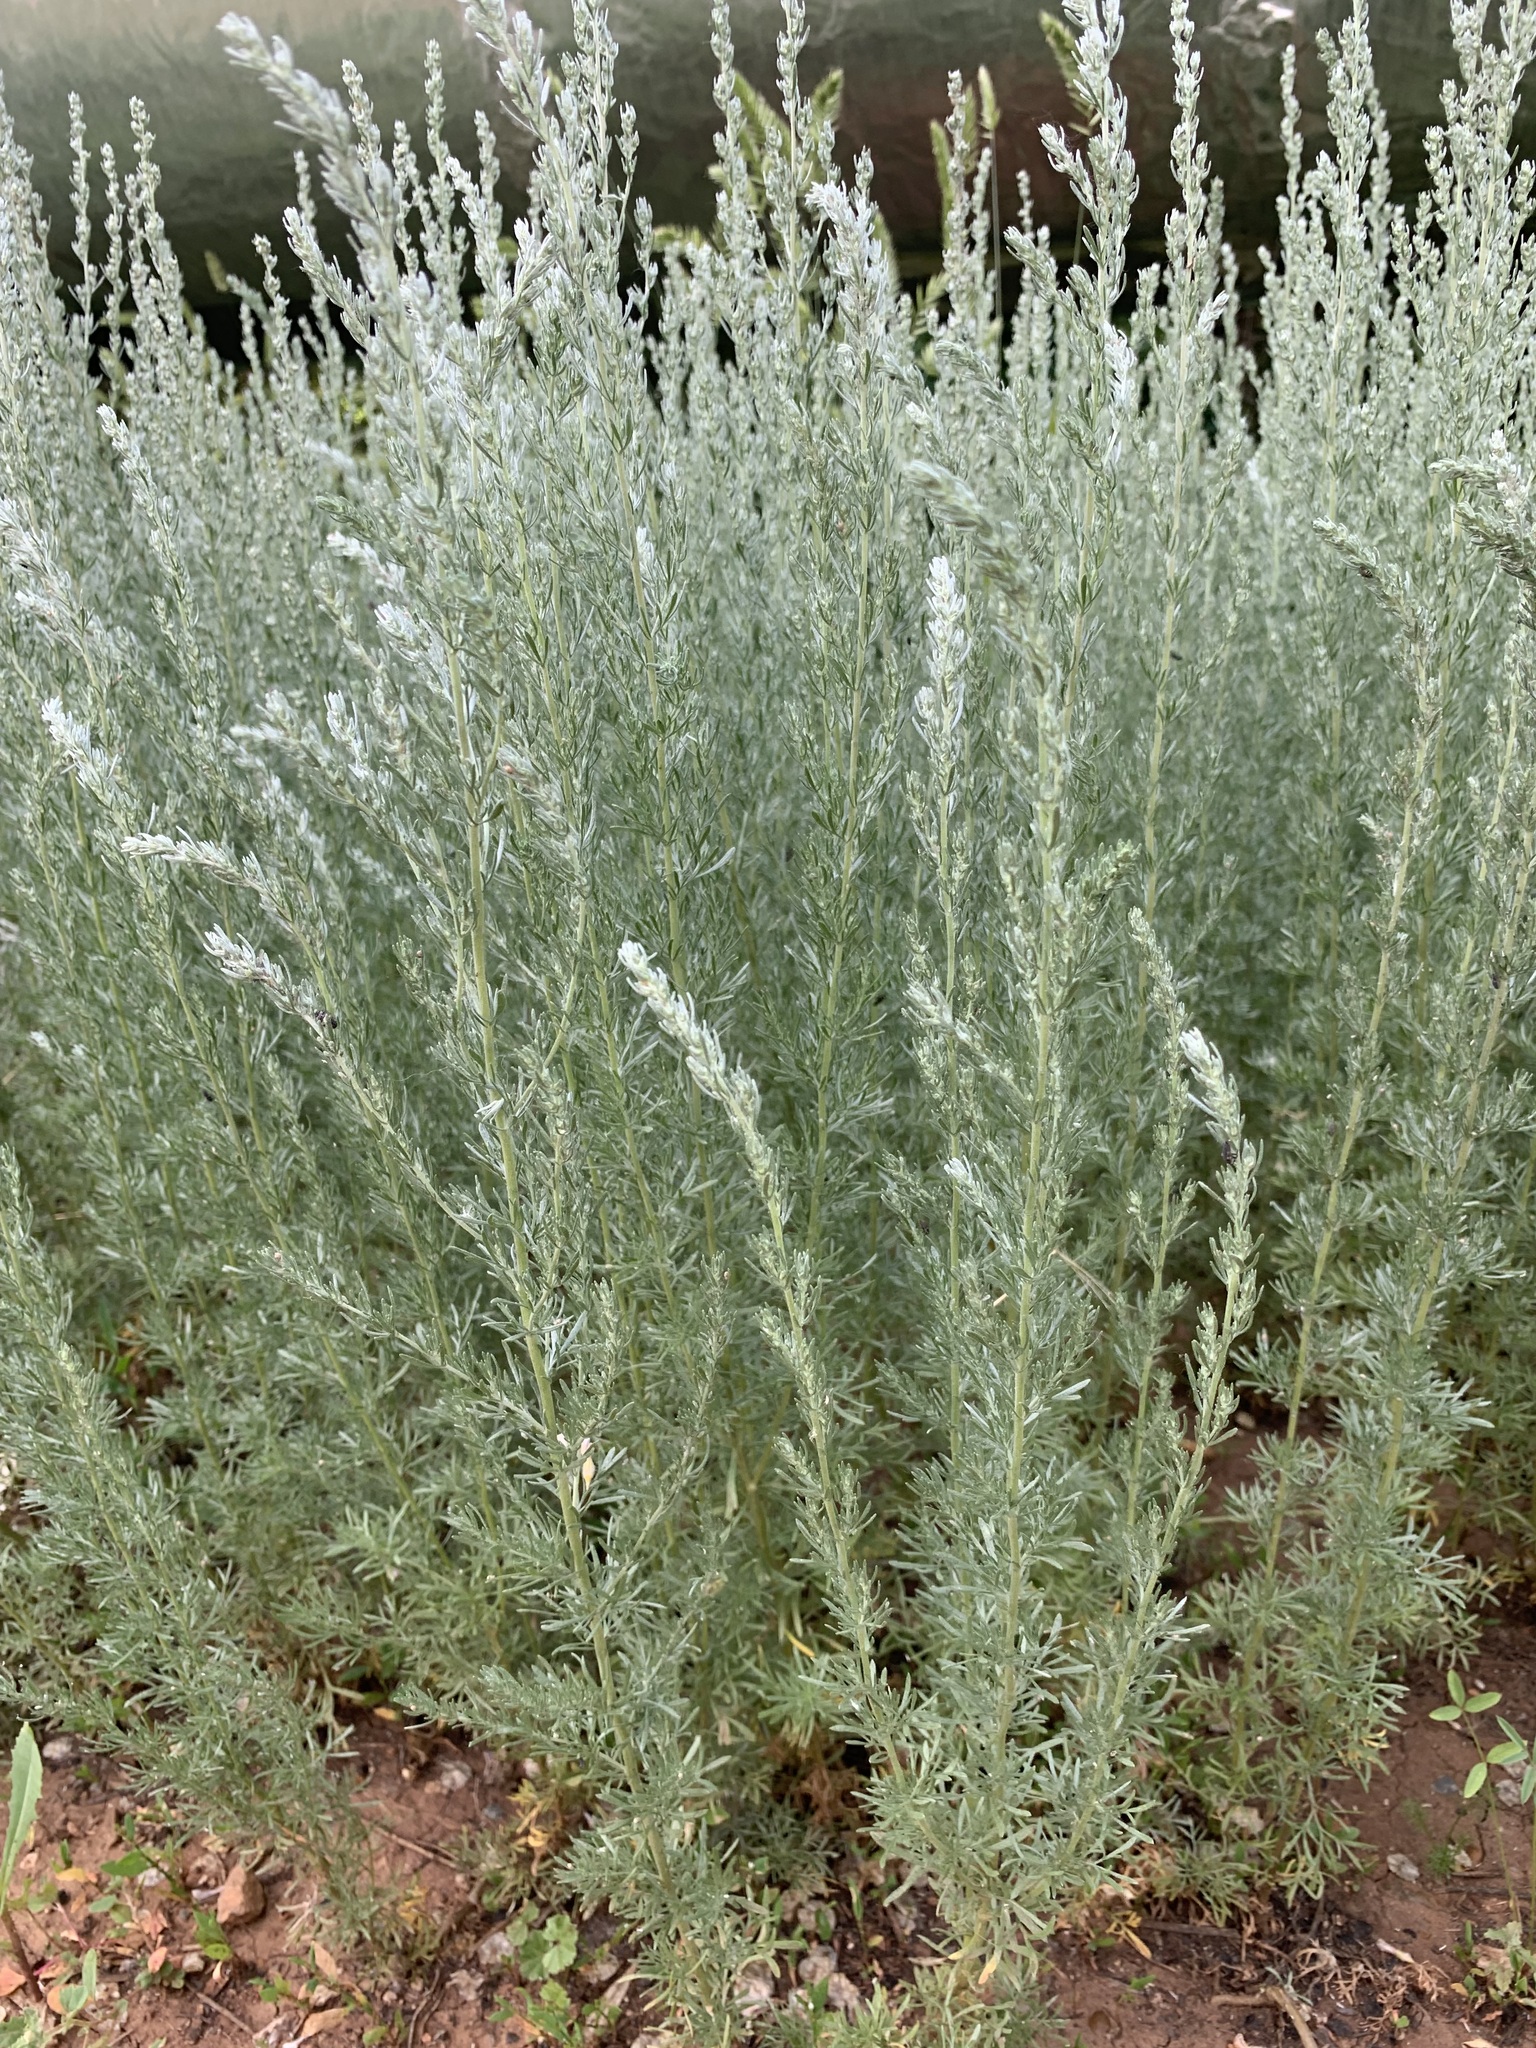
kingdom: Plantae
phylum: Tracheophyta
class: Magnoliopsida
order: Asterales
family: Asteraceae
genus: Artemisia
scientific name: Artemisia austriaca
